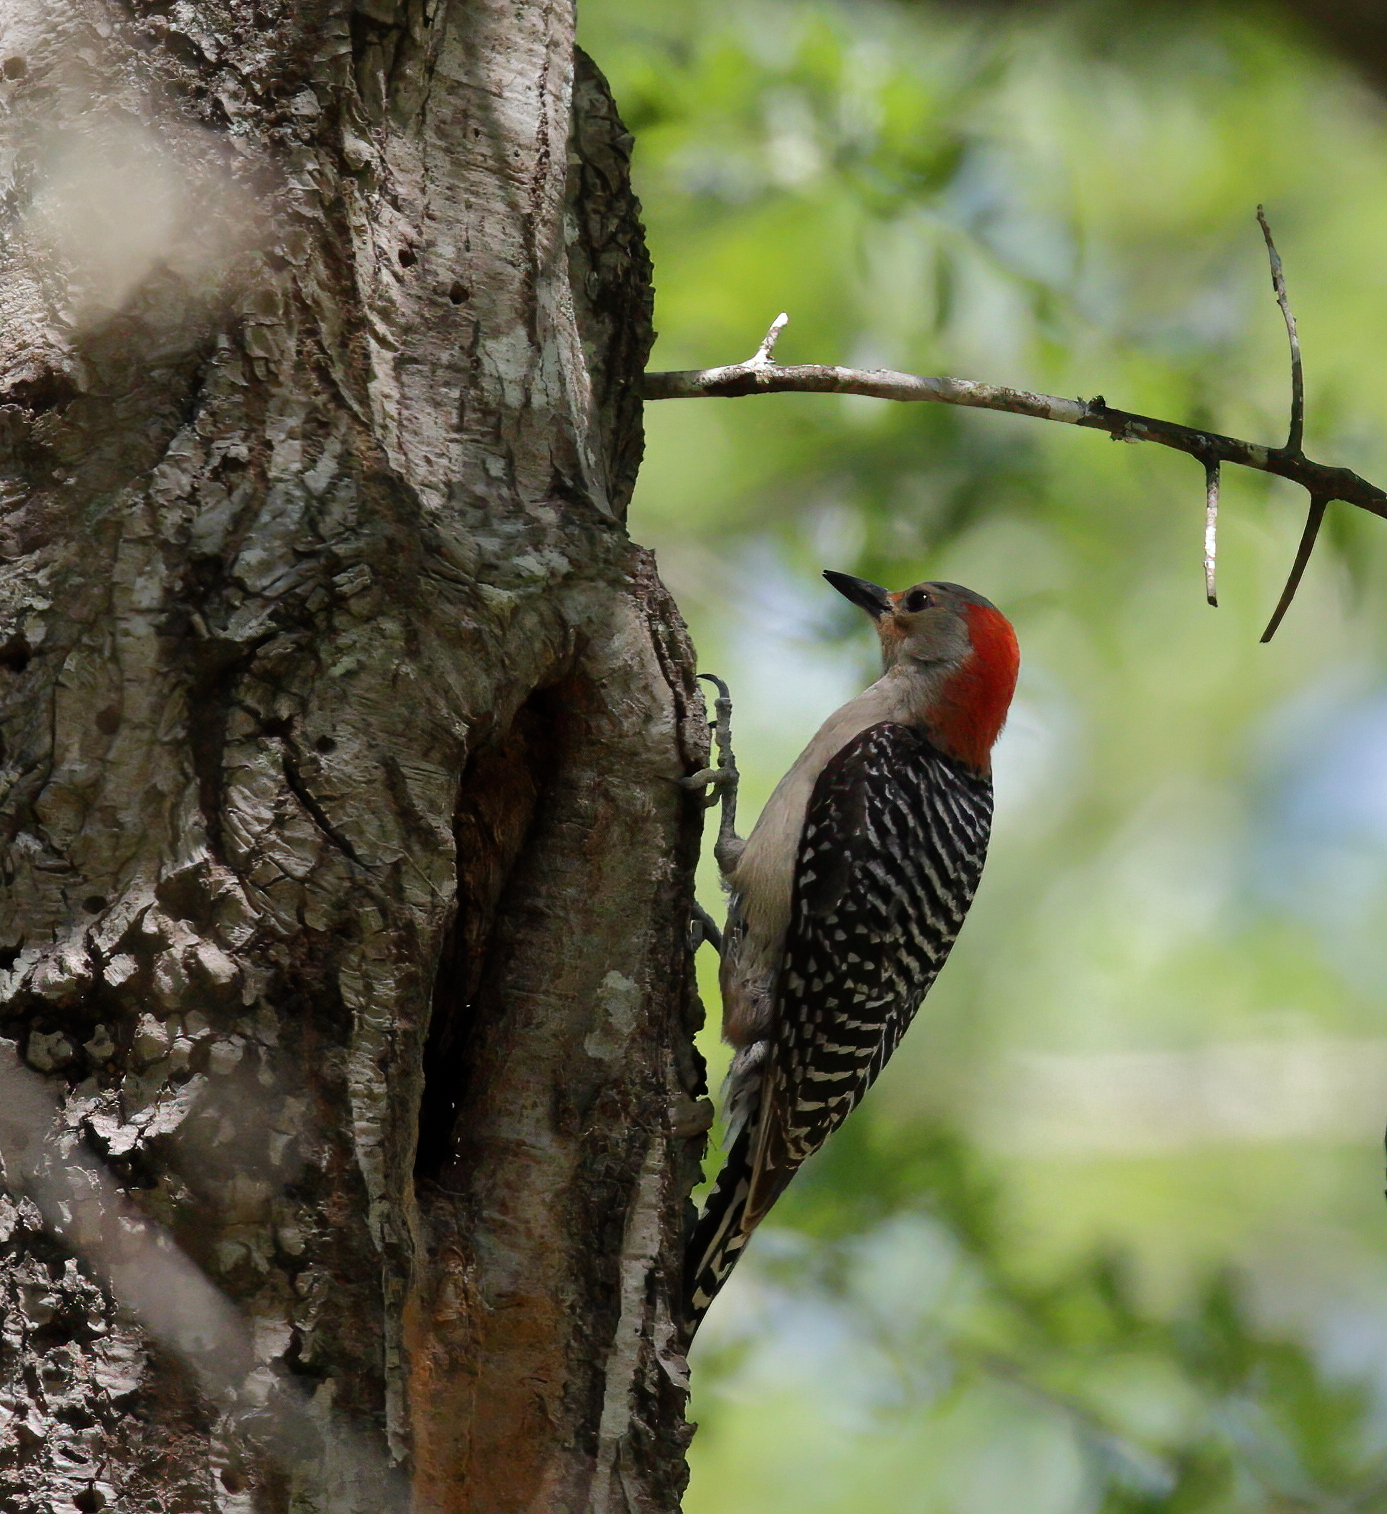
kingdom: Animalia
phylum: Chordata
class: Aves
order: Piciformes
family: Picidae
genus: Melanerpes
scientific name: Melanerpes carolinus
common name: Red-bellied woodpecker
